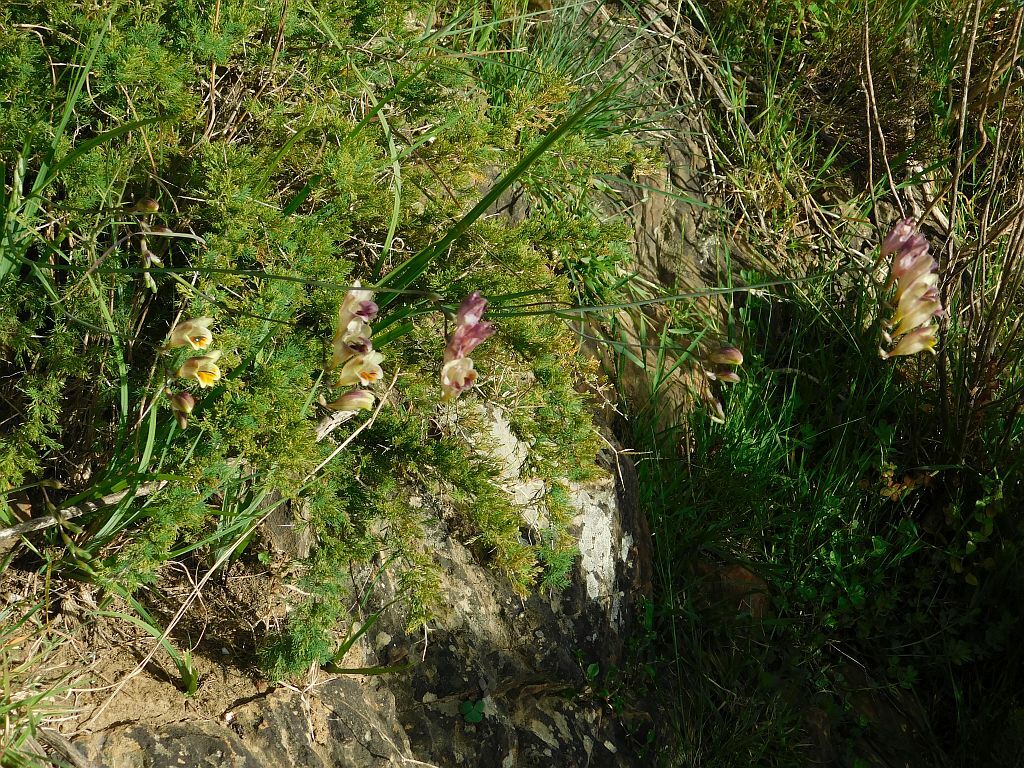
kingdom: Plantae
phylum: Tracheophyta
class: Liliopsida
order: Asparagales
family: Iridaceae
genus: Freesia
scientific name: Freesia refracta
